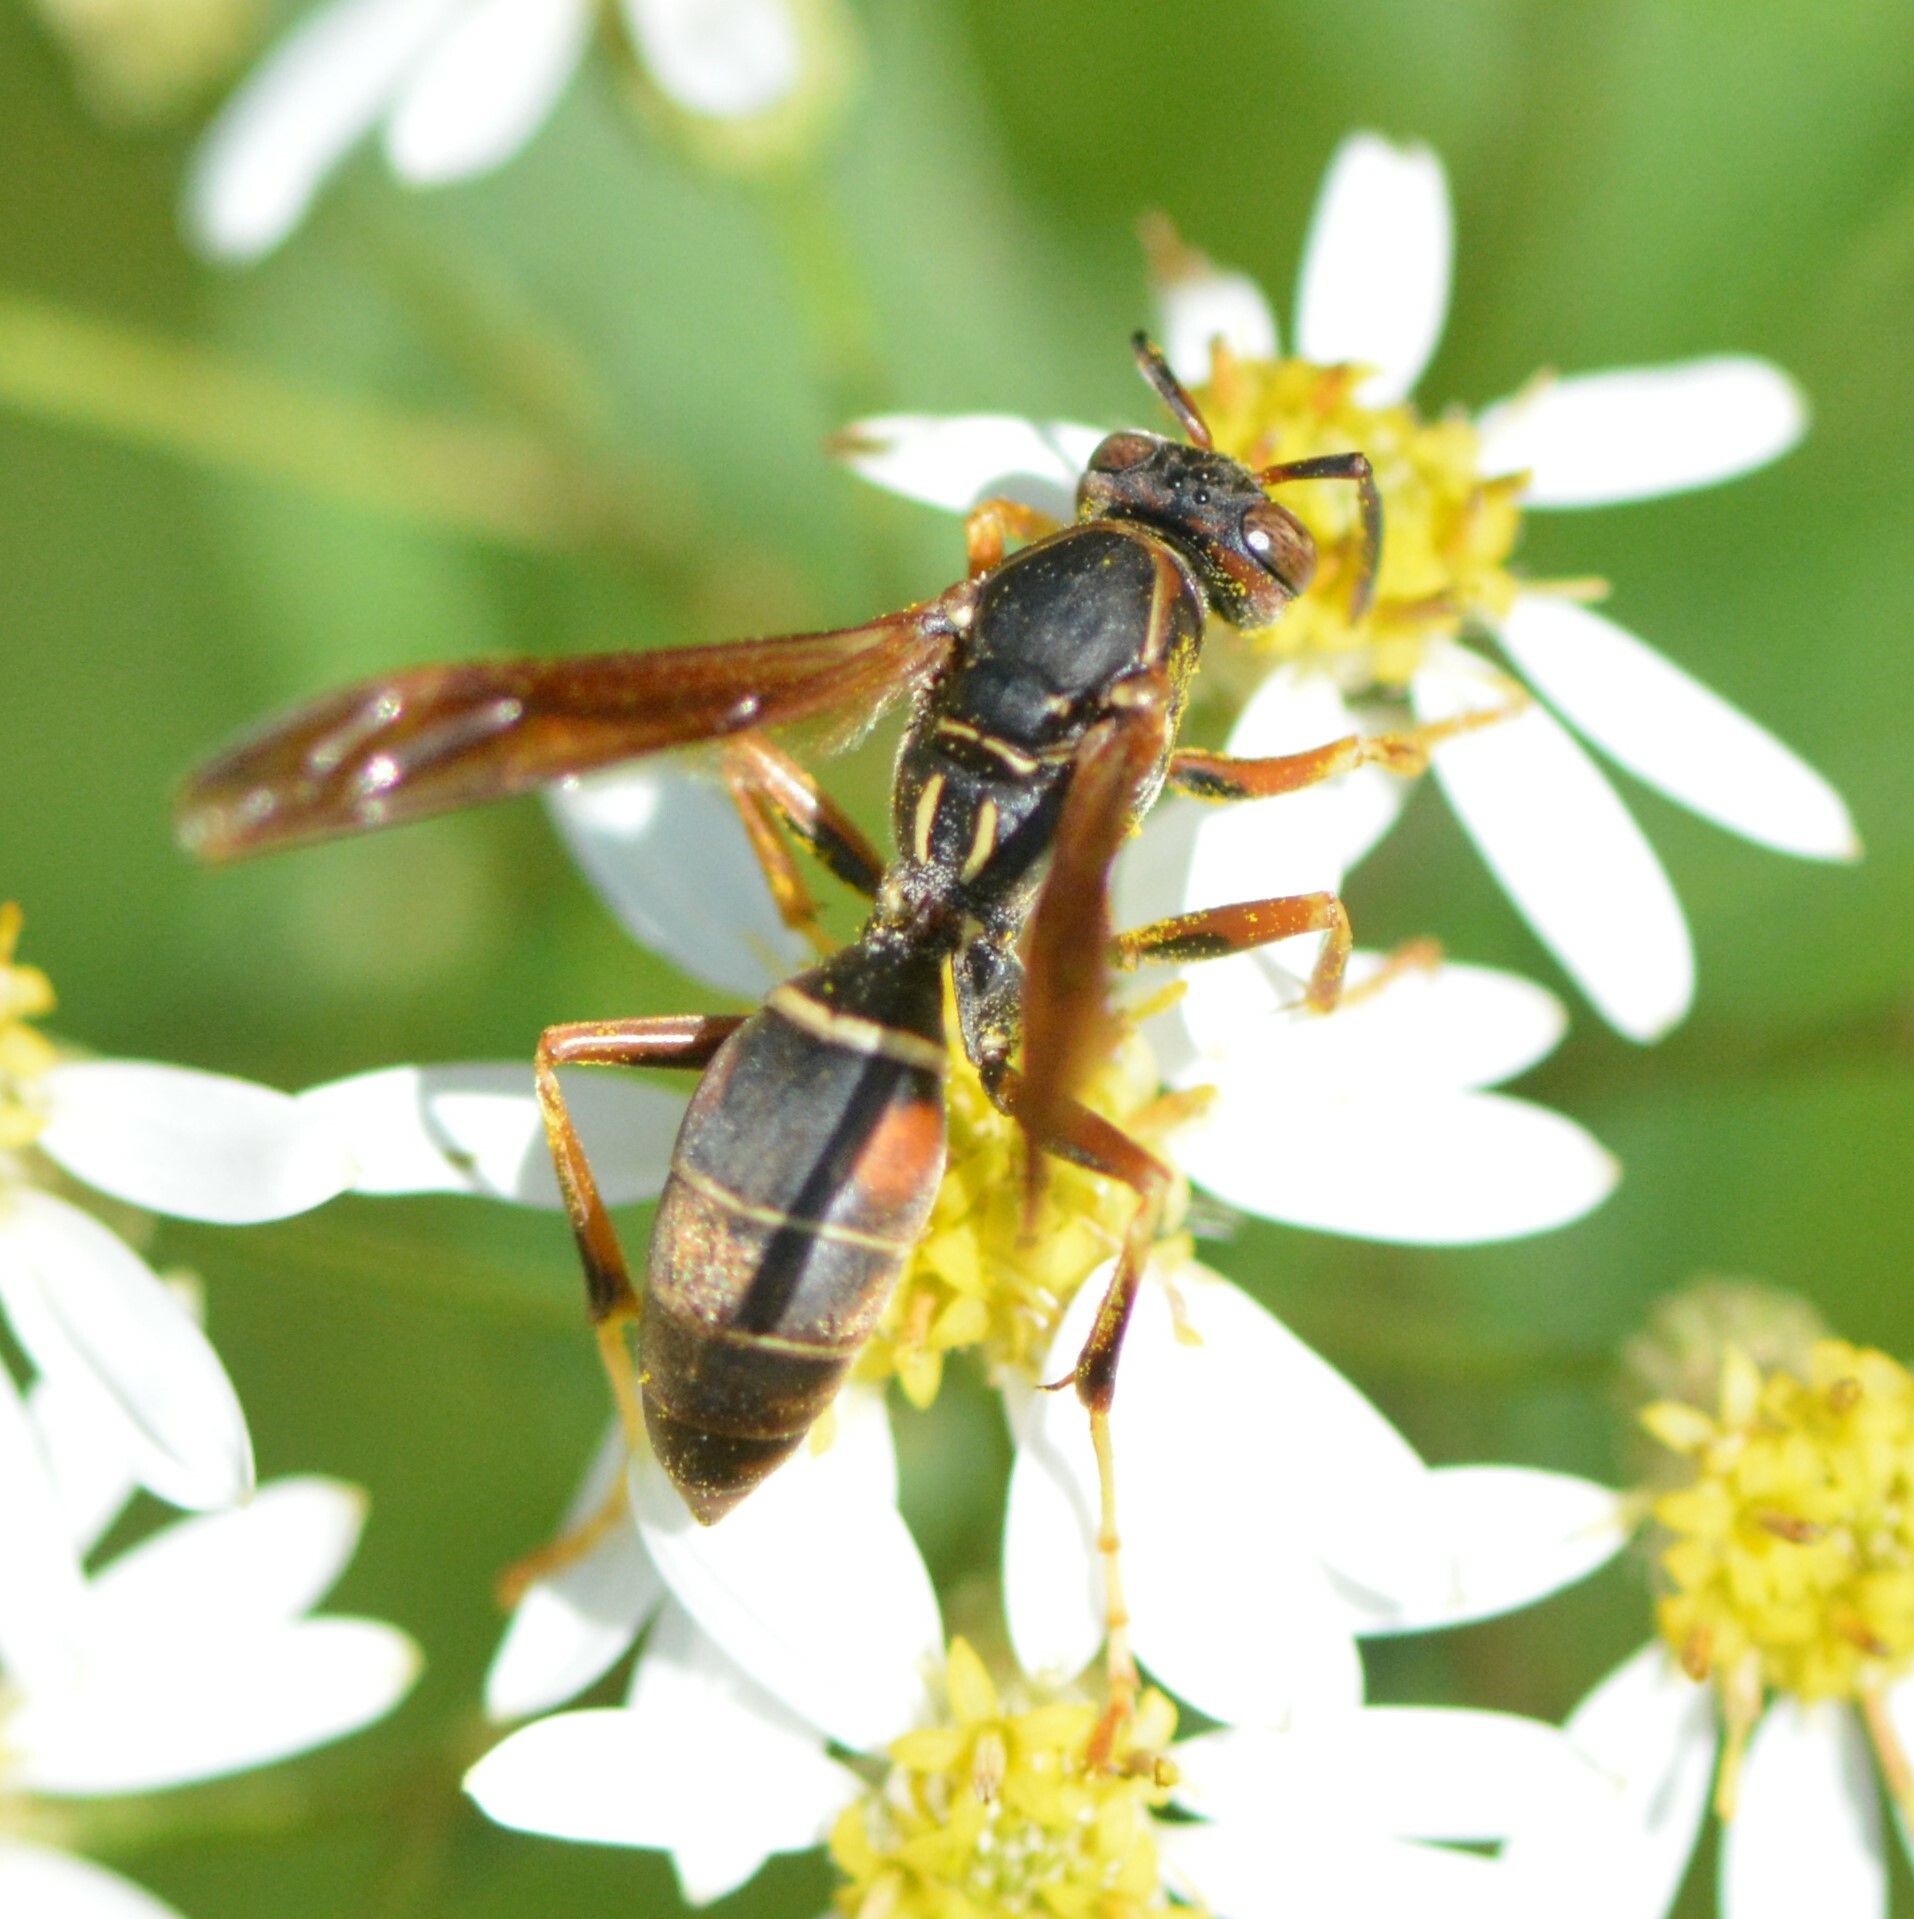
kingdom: Animalia
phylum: Arthropoda
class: Insecta
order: Hymenoptera
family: Eumenidae
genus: Polistes
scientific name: Polistes fuscatus
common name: Dark paper wasp
